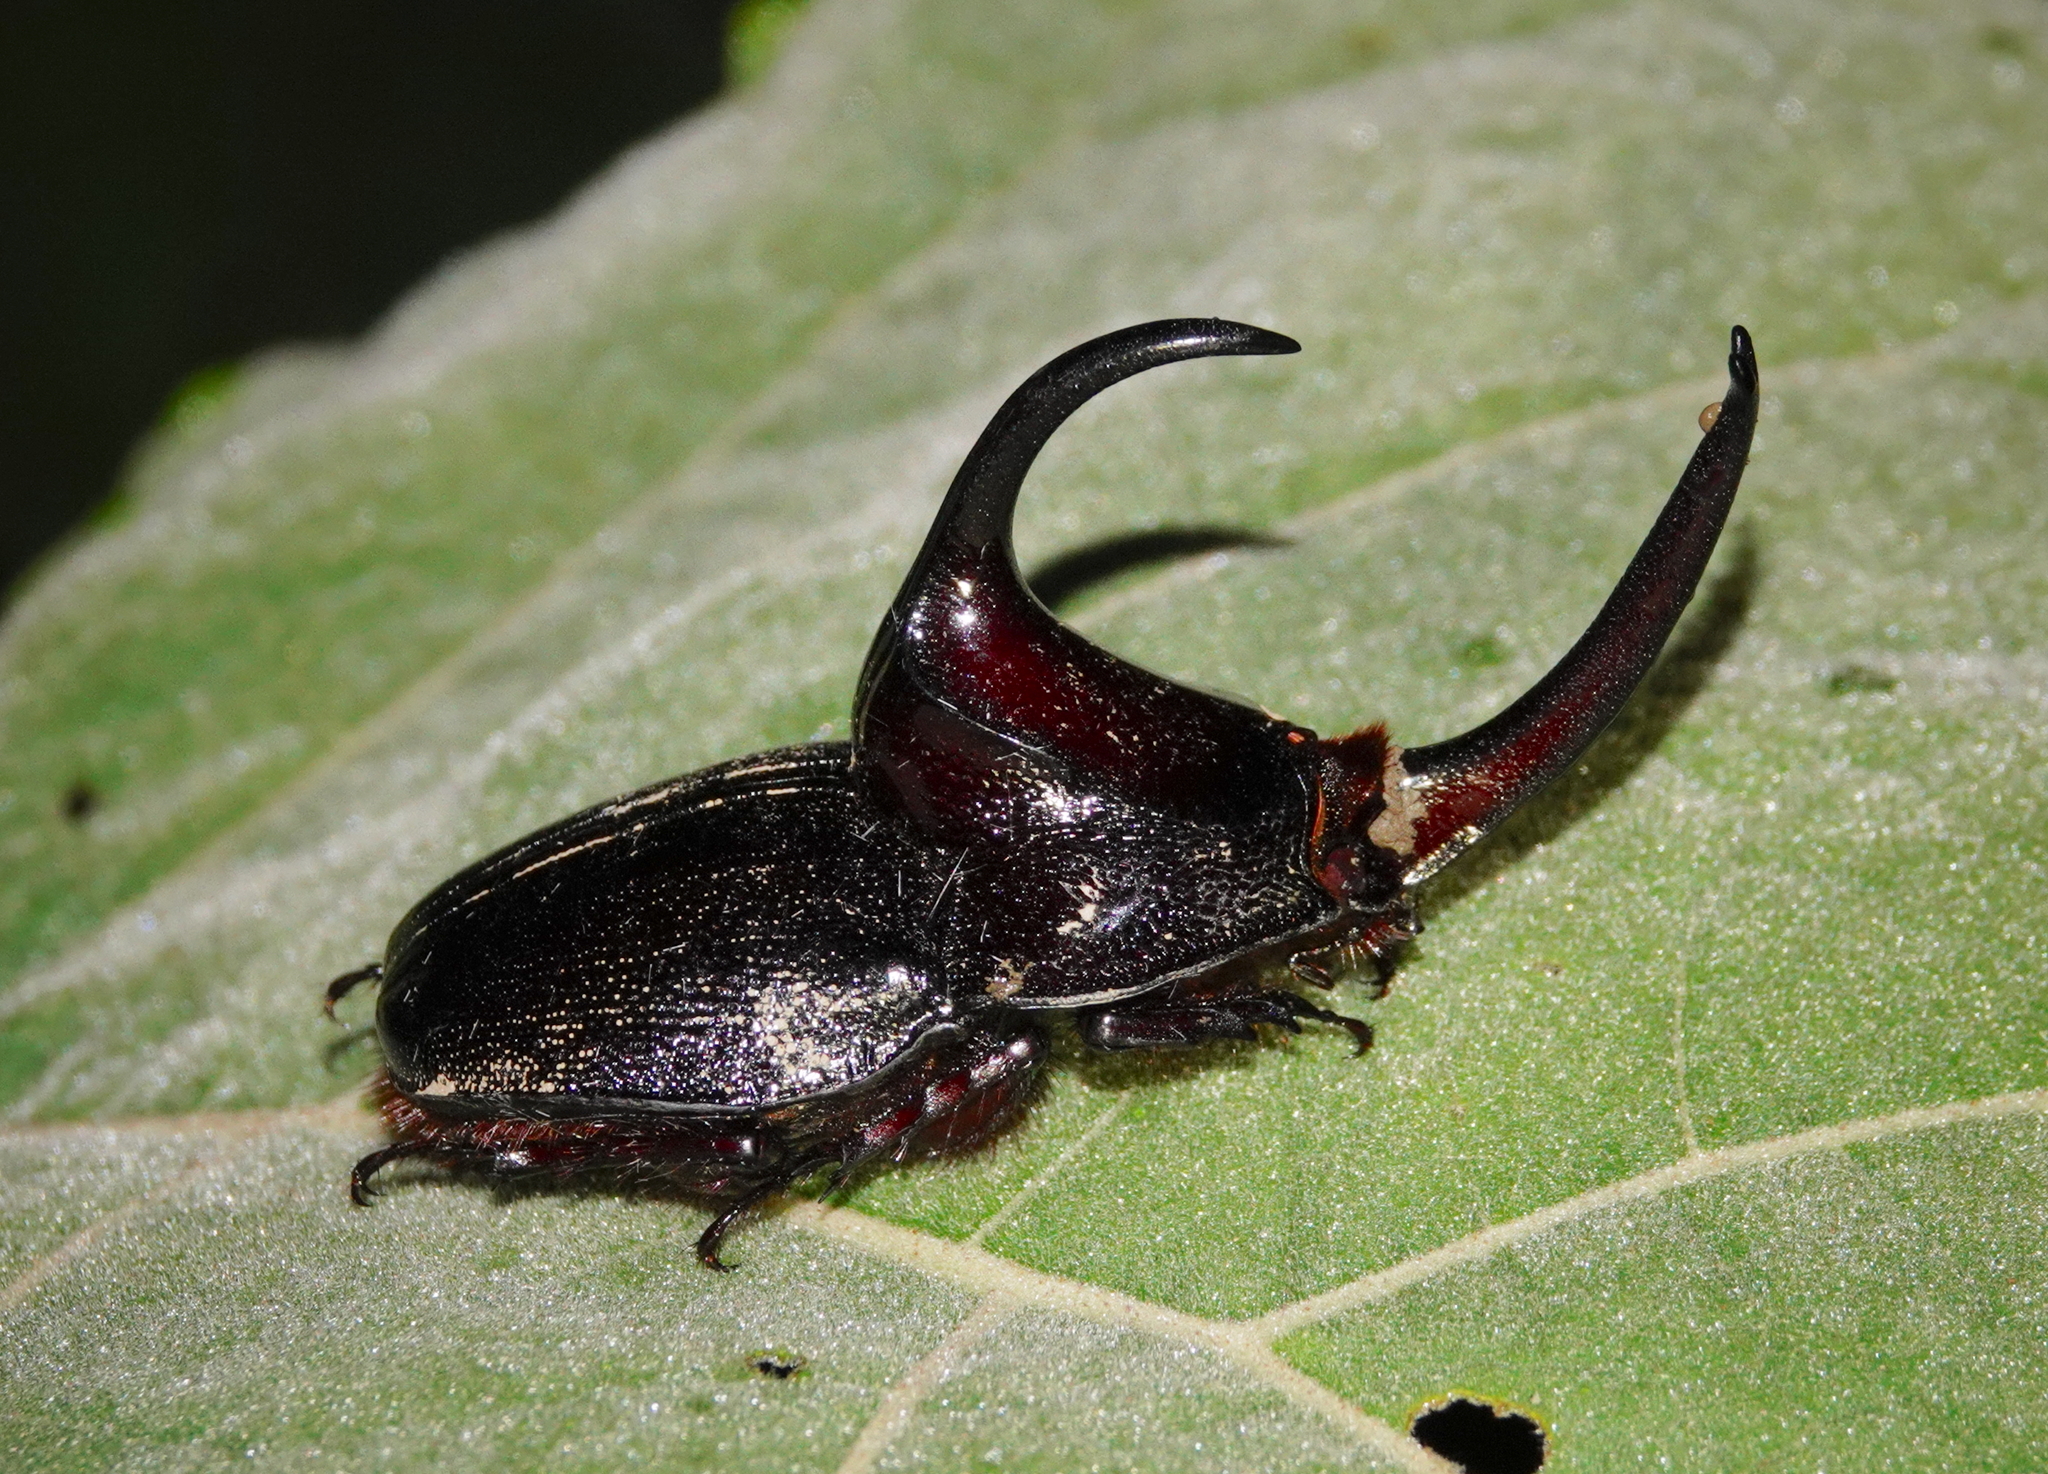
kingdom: Animalia
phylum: Arthropoda
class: Insecta
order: Coleoptera
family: Scarabaeidae
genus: Enema
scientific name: Enema pan
